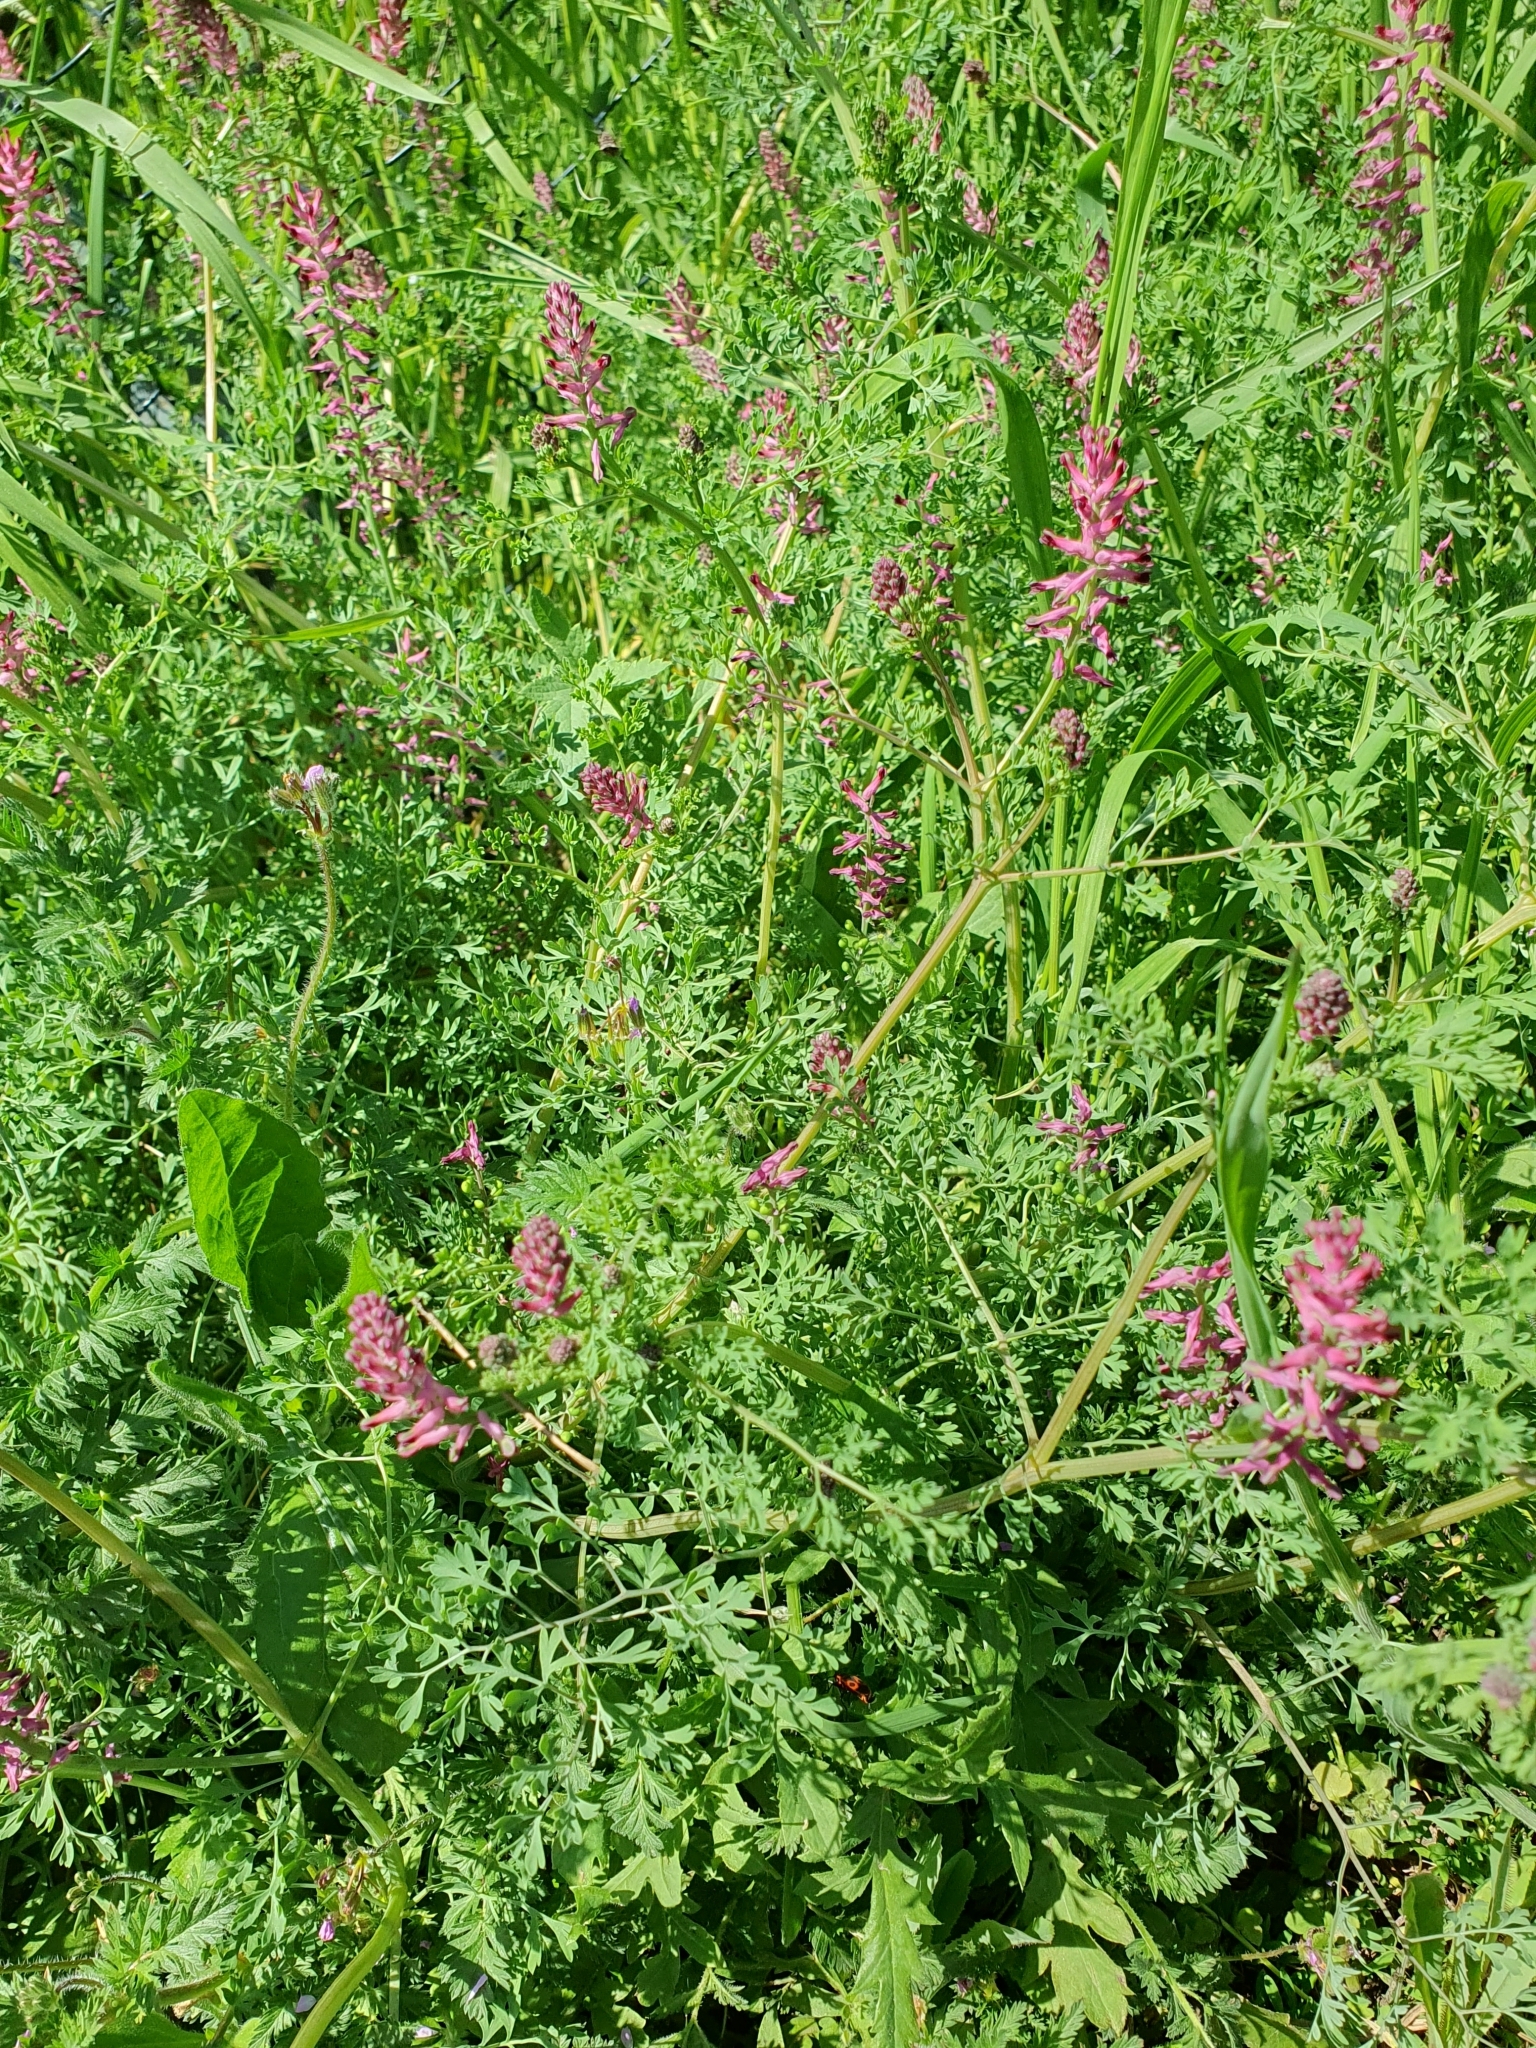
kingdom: Plantae
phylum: Tracheophyta
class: Magnoliopsida
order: Ranunculales
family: Papaveraceae
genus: Fumaria
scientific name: Fumaria officinalis
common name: Common fumitory
